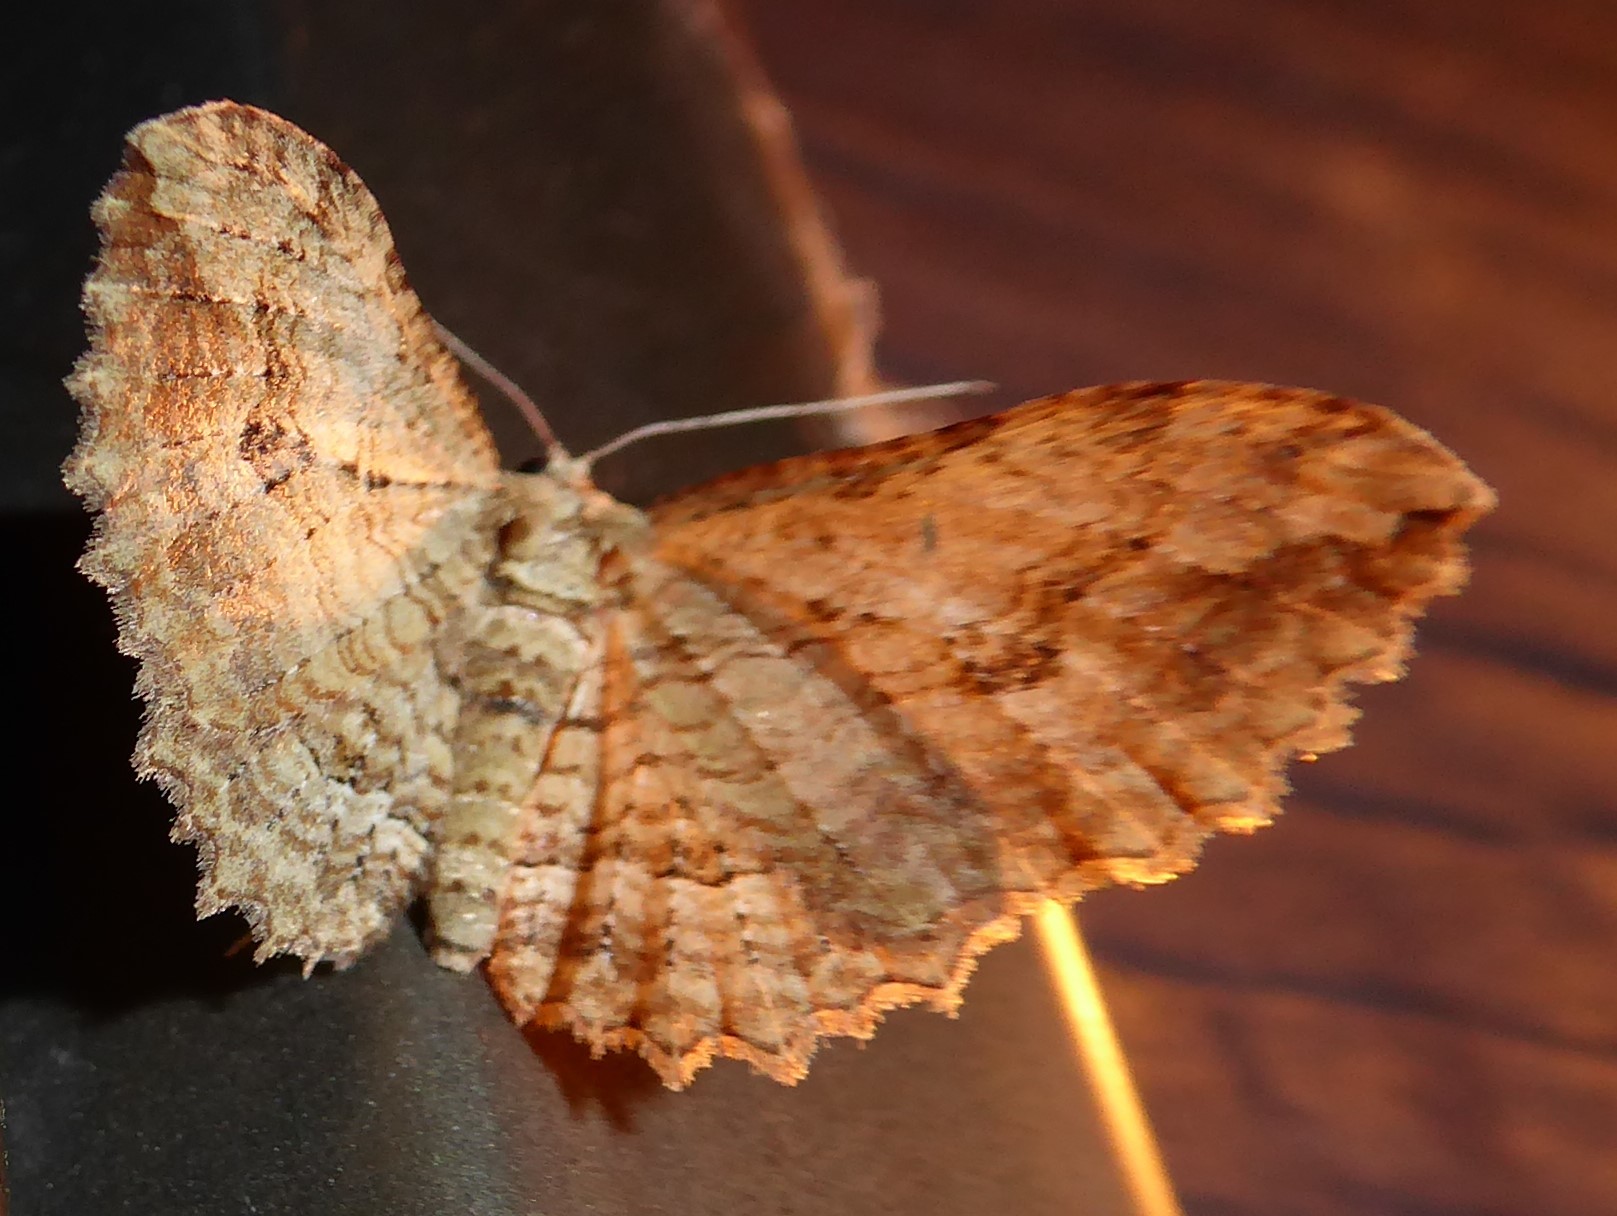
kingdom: Animalia
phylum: Arthropoda
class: Insecta
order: Lepidoptera
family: Geometridae
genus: Austrocidaria
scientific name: Austrocidaria bipartita
